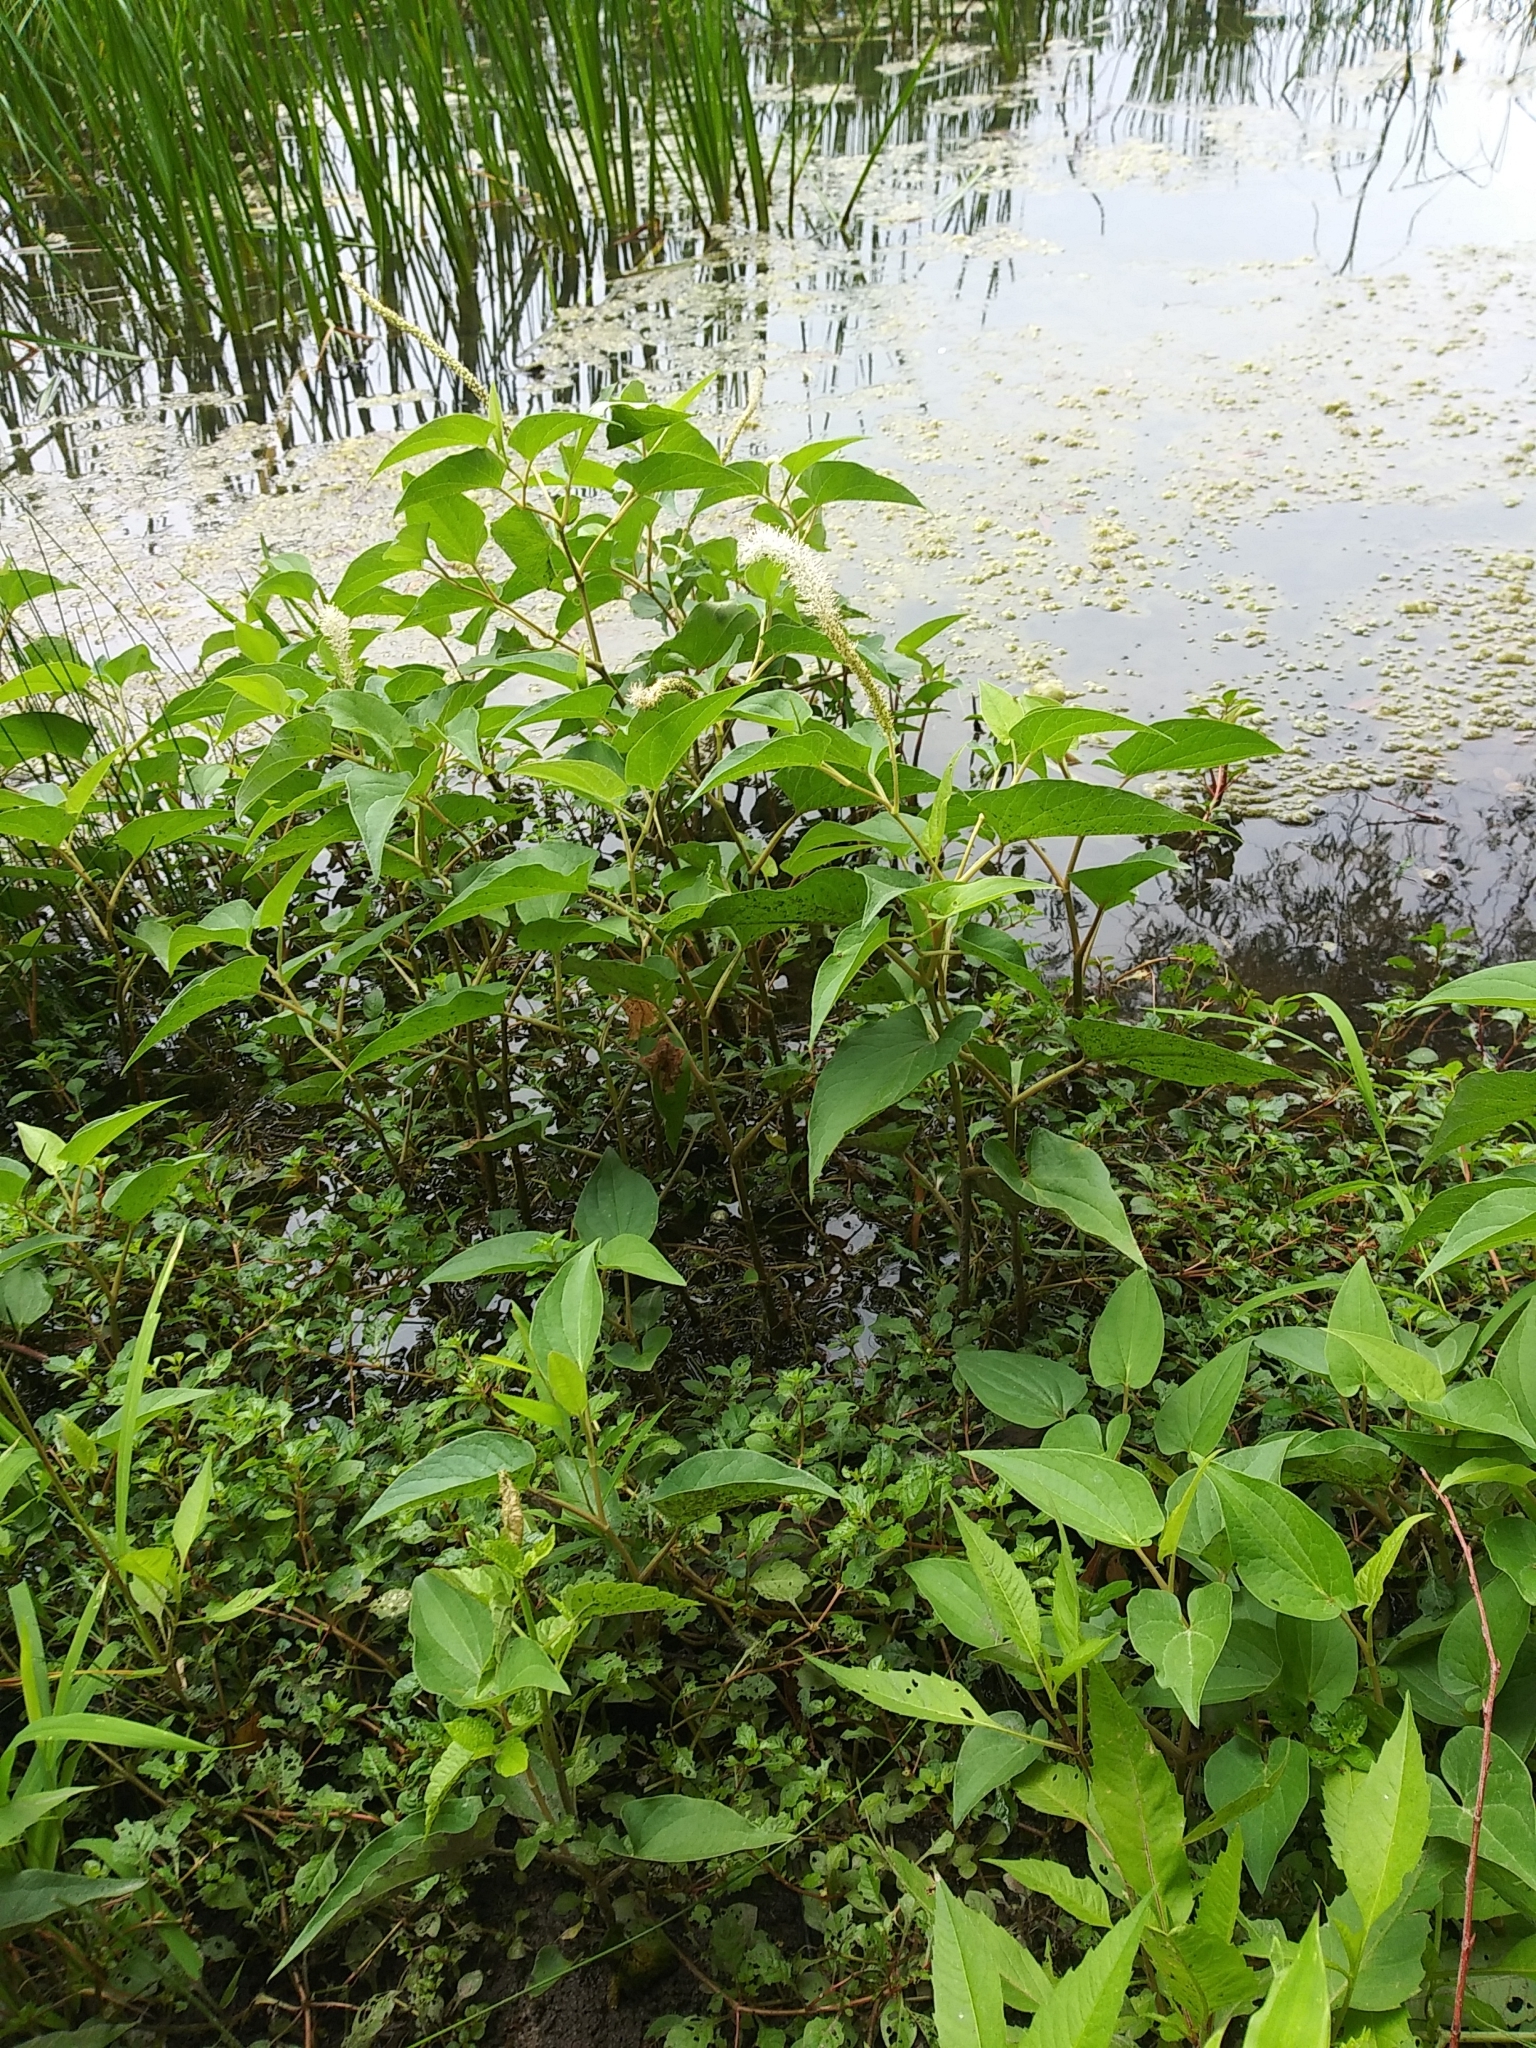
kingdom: Plantae
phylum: Tracheophyta
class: Magnoliopsida
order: Piperales
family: Saururaceae
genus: Saururus
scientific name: Saururus cernuus
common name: Lizard's-tail
